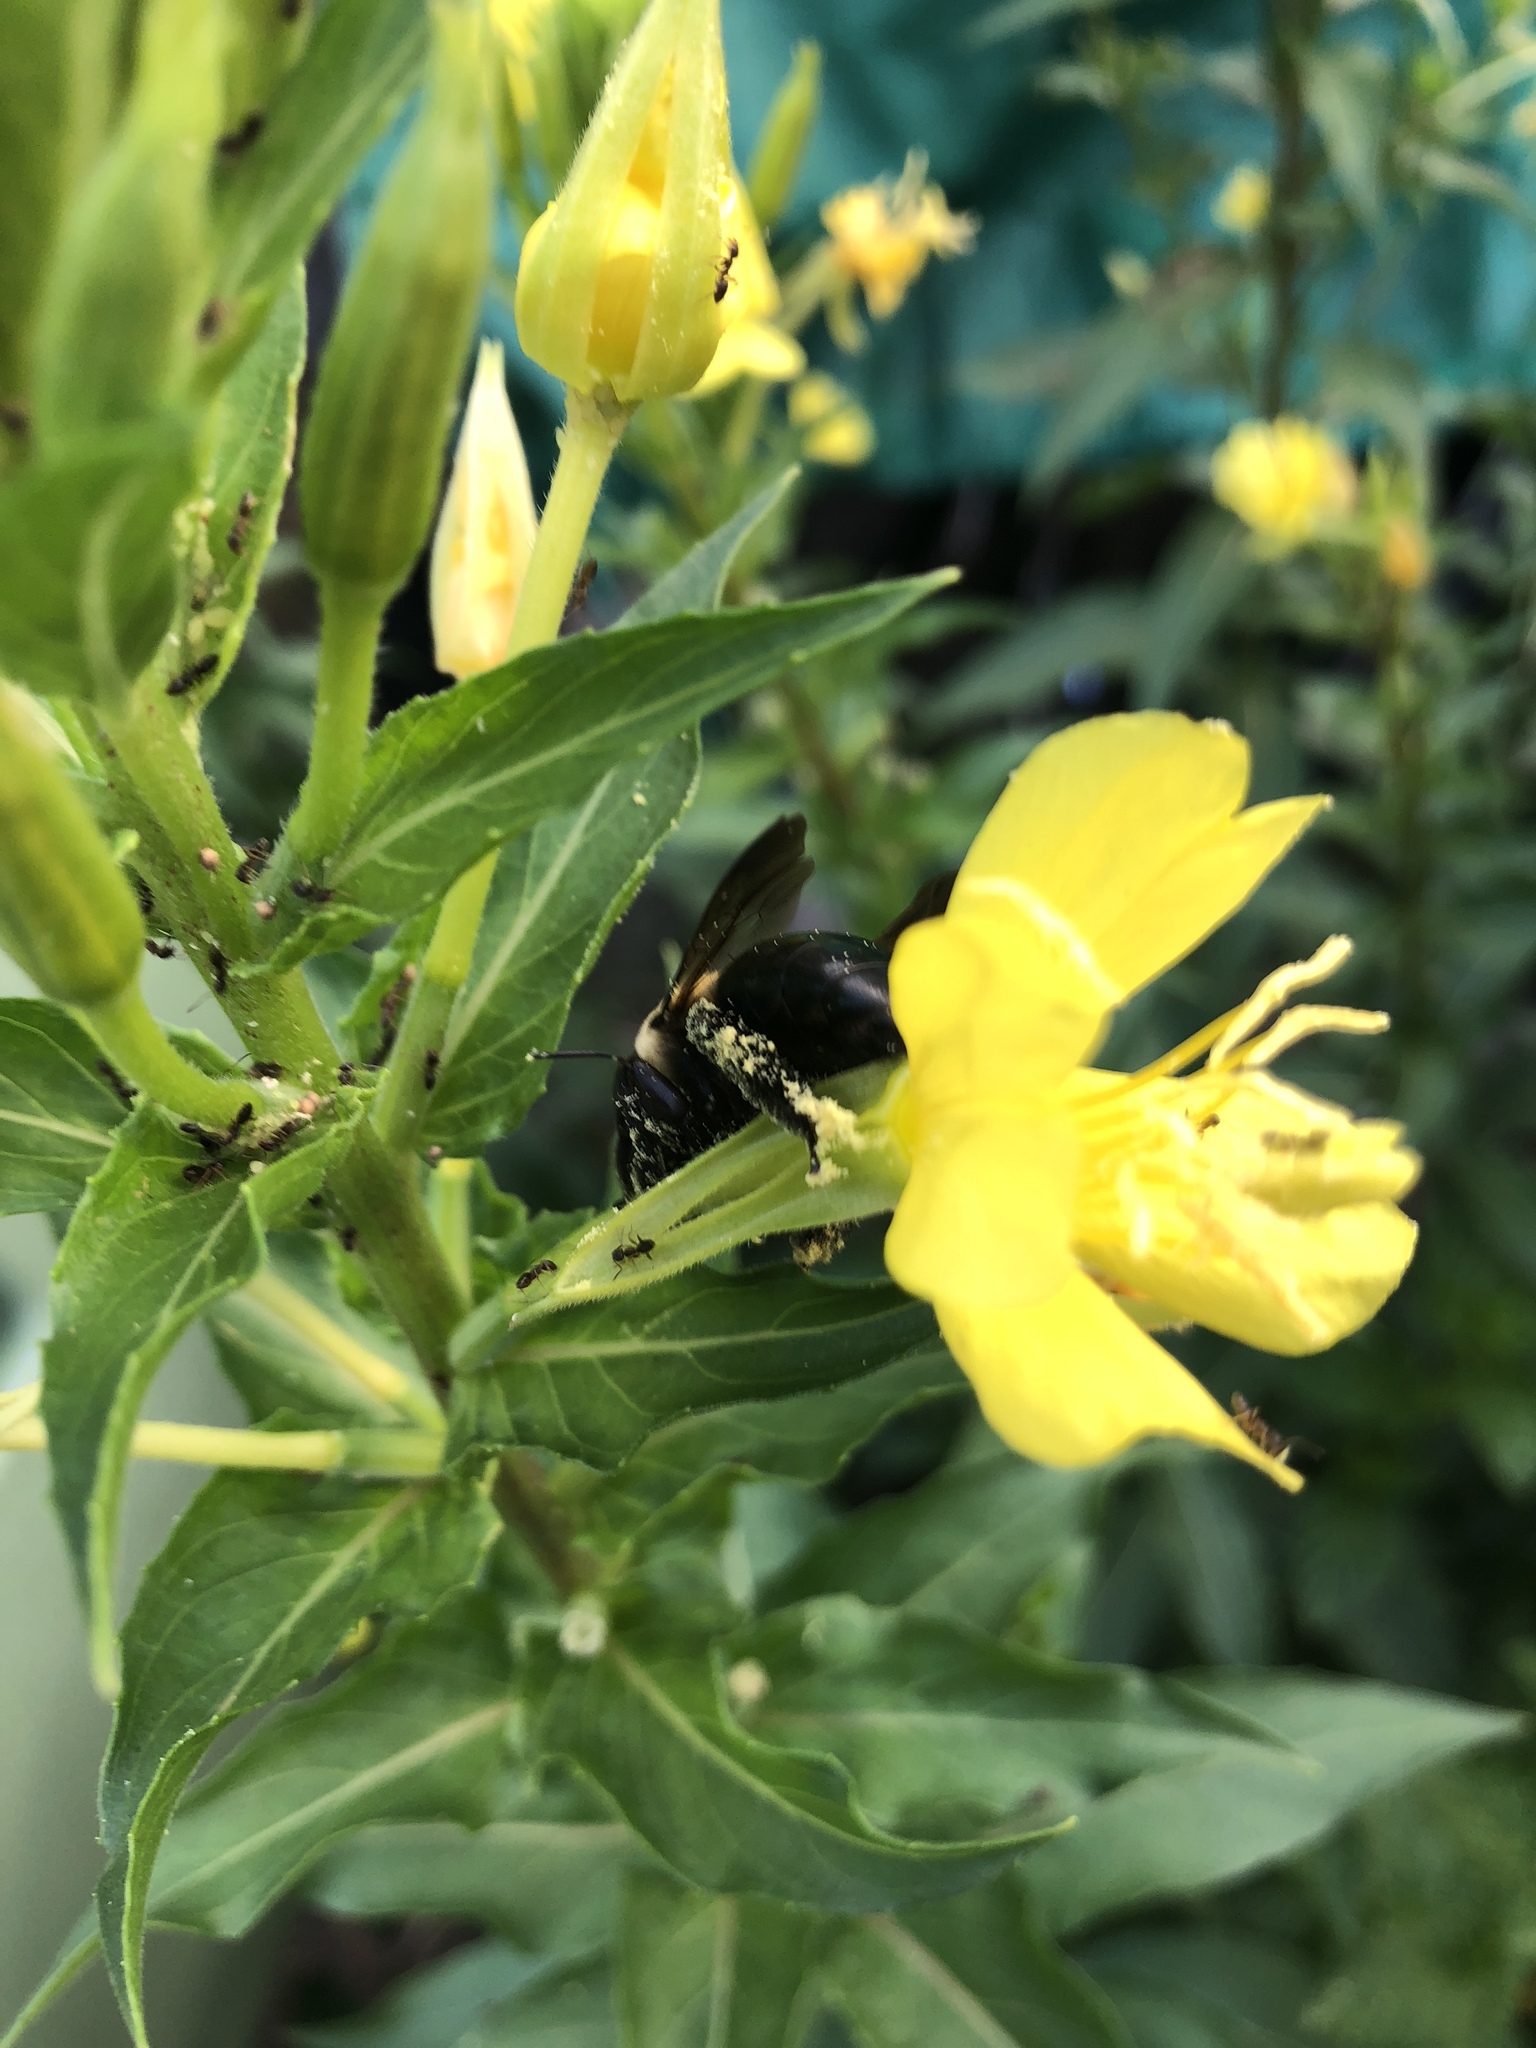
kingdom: Animalia
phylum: Arthropoda
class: Insecta
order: Hymenoptera
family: Apidae
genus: Xylocopa
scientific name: Xylocopa virginica
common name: Carpenter bee
